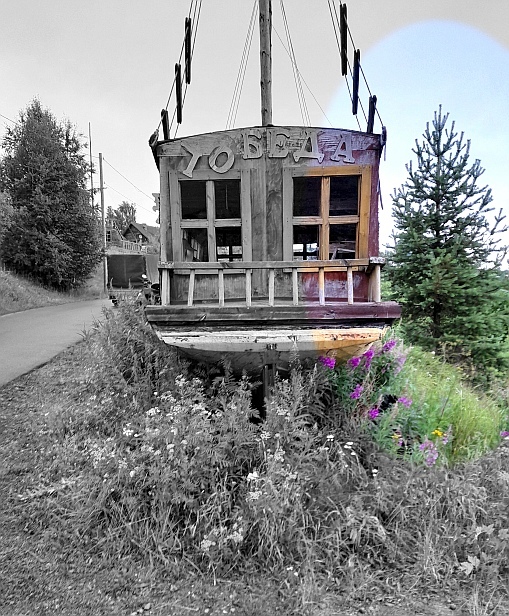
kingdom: Plantae
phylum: Tracheophyta
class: Pinopsida
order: Pinales
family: Pinaceae
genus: Pinus
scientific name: Pinus sylvestris
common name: Scots pine
